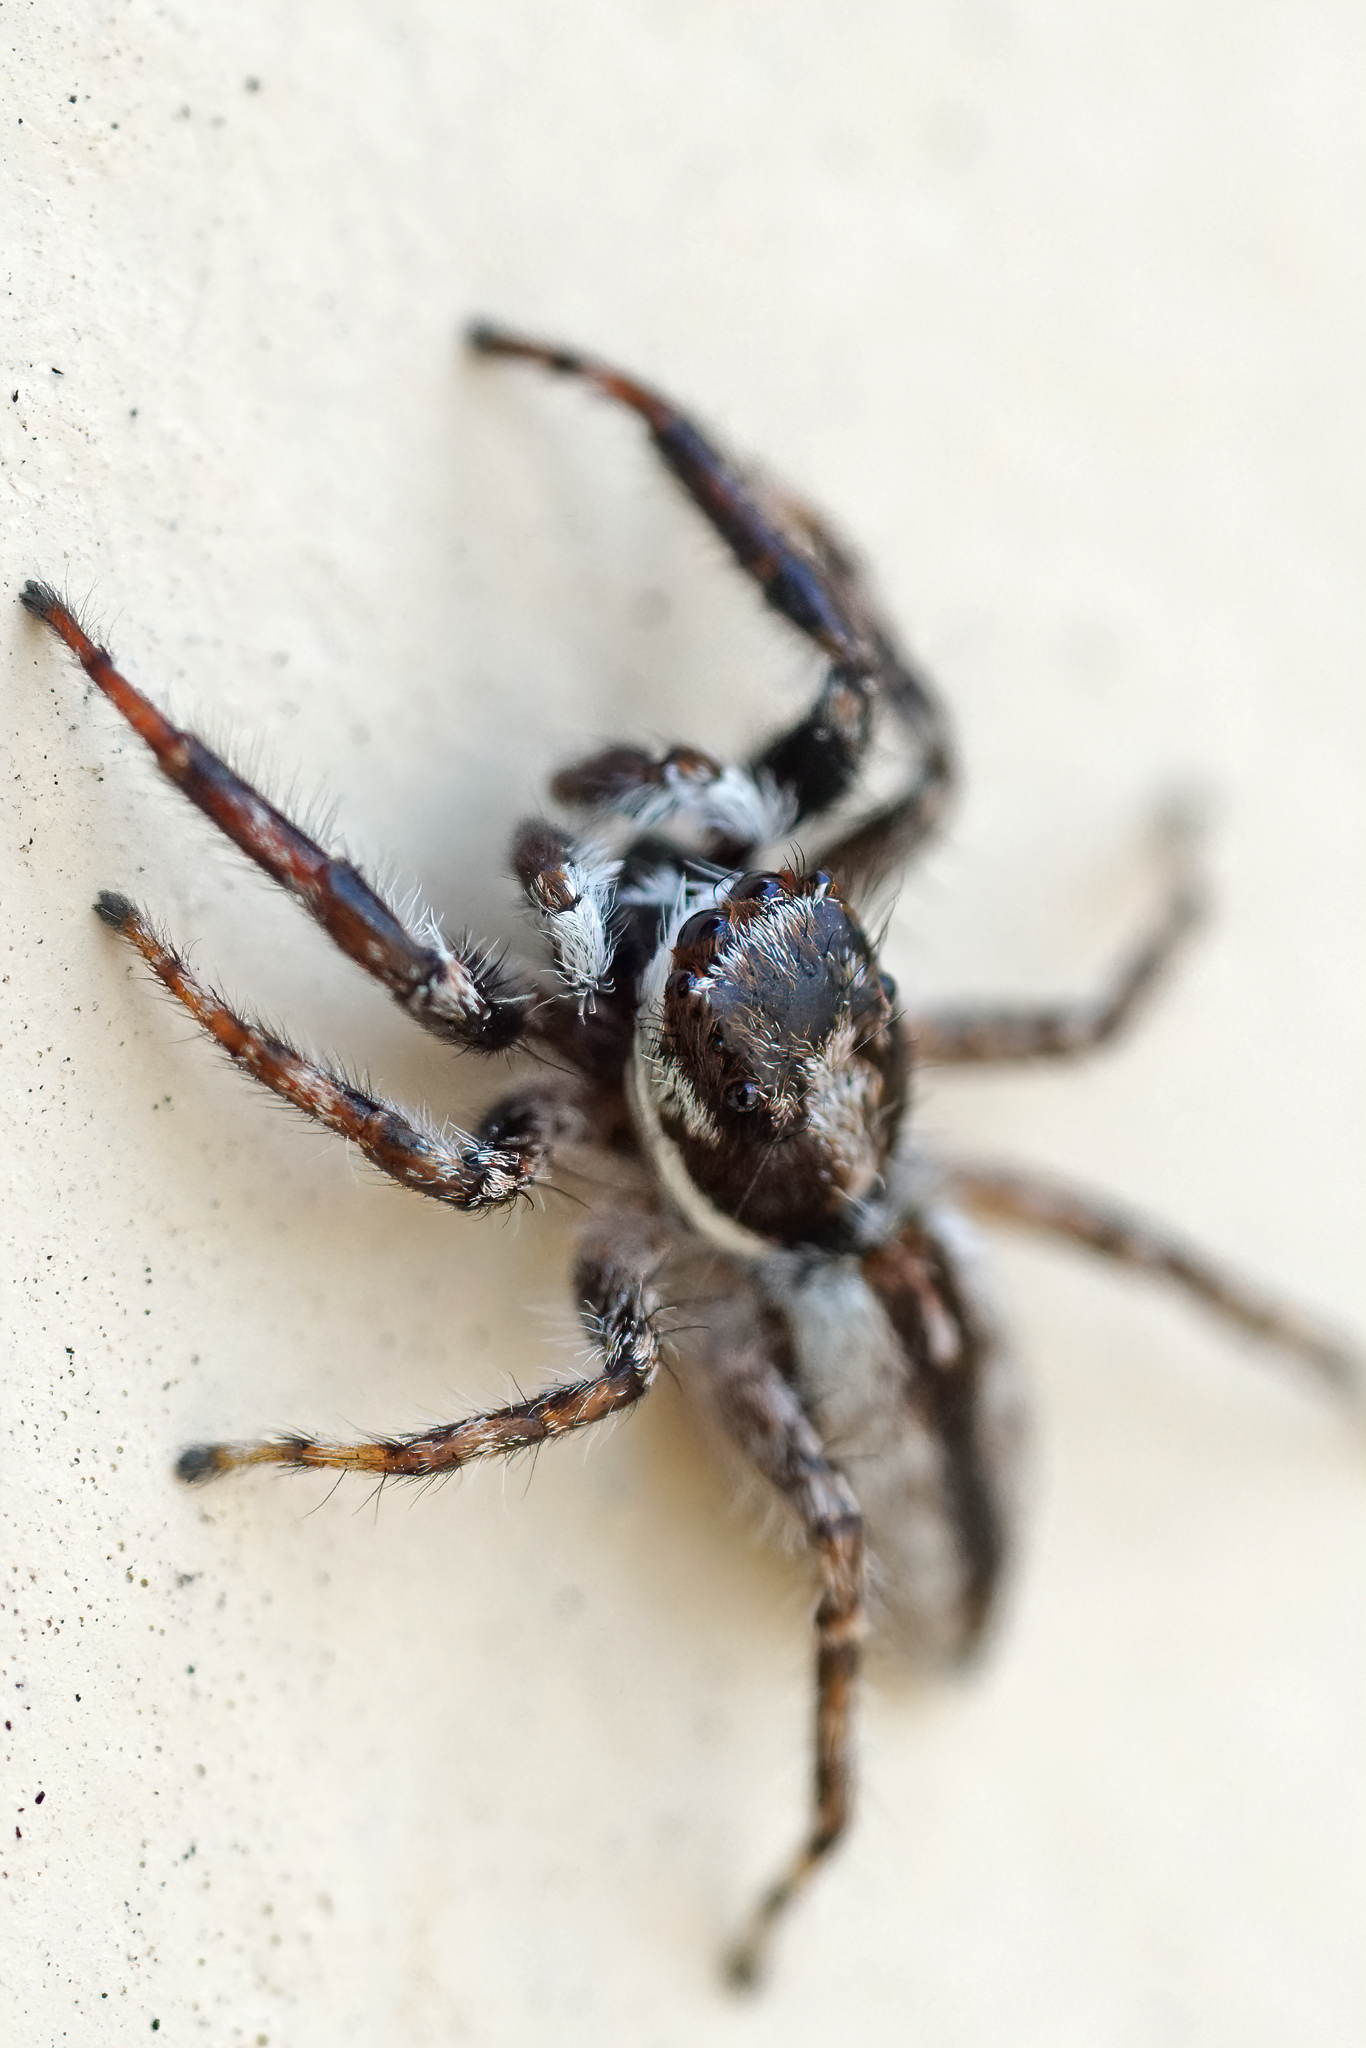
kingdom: Animalia
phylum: Arthropoda
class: Arachnida
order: Araneae
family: Salticidae
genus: Menemerus
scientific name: Menemerus bivittatus
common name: Gray wall jumper
